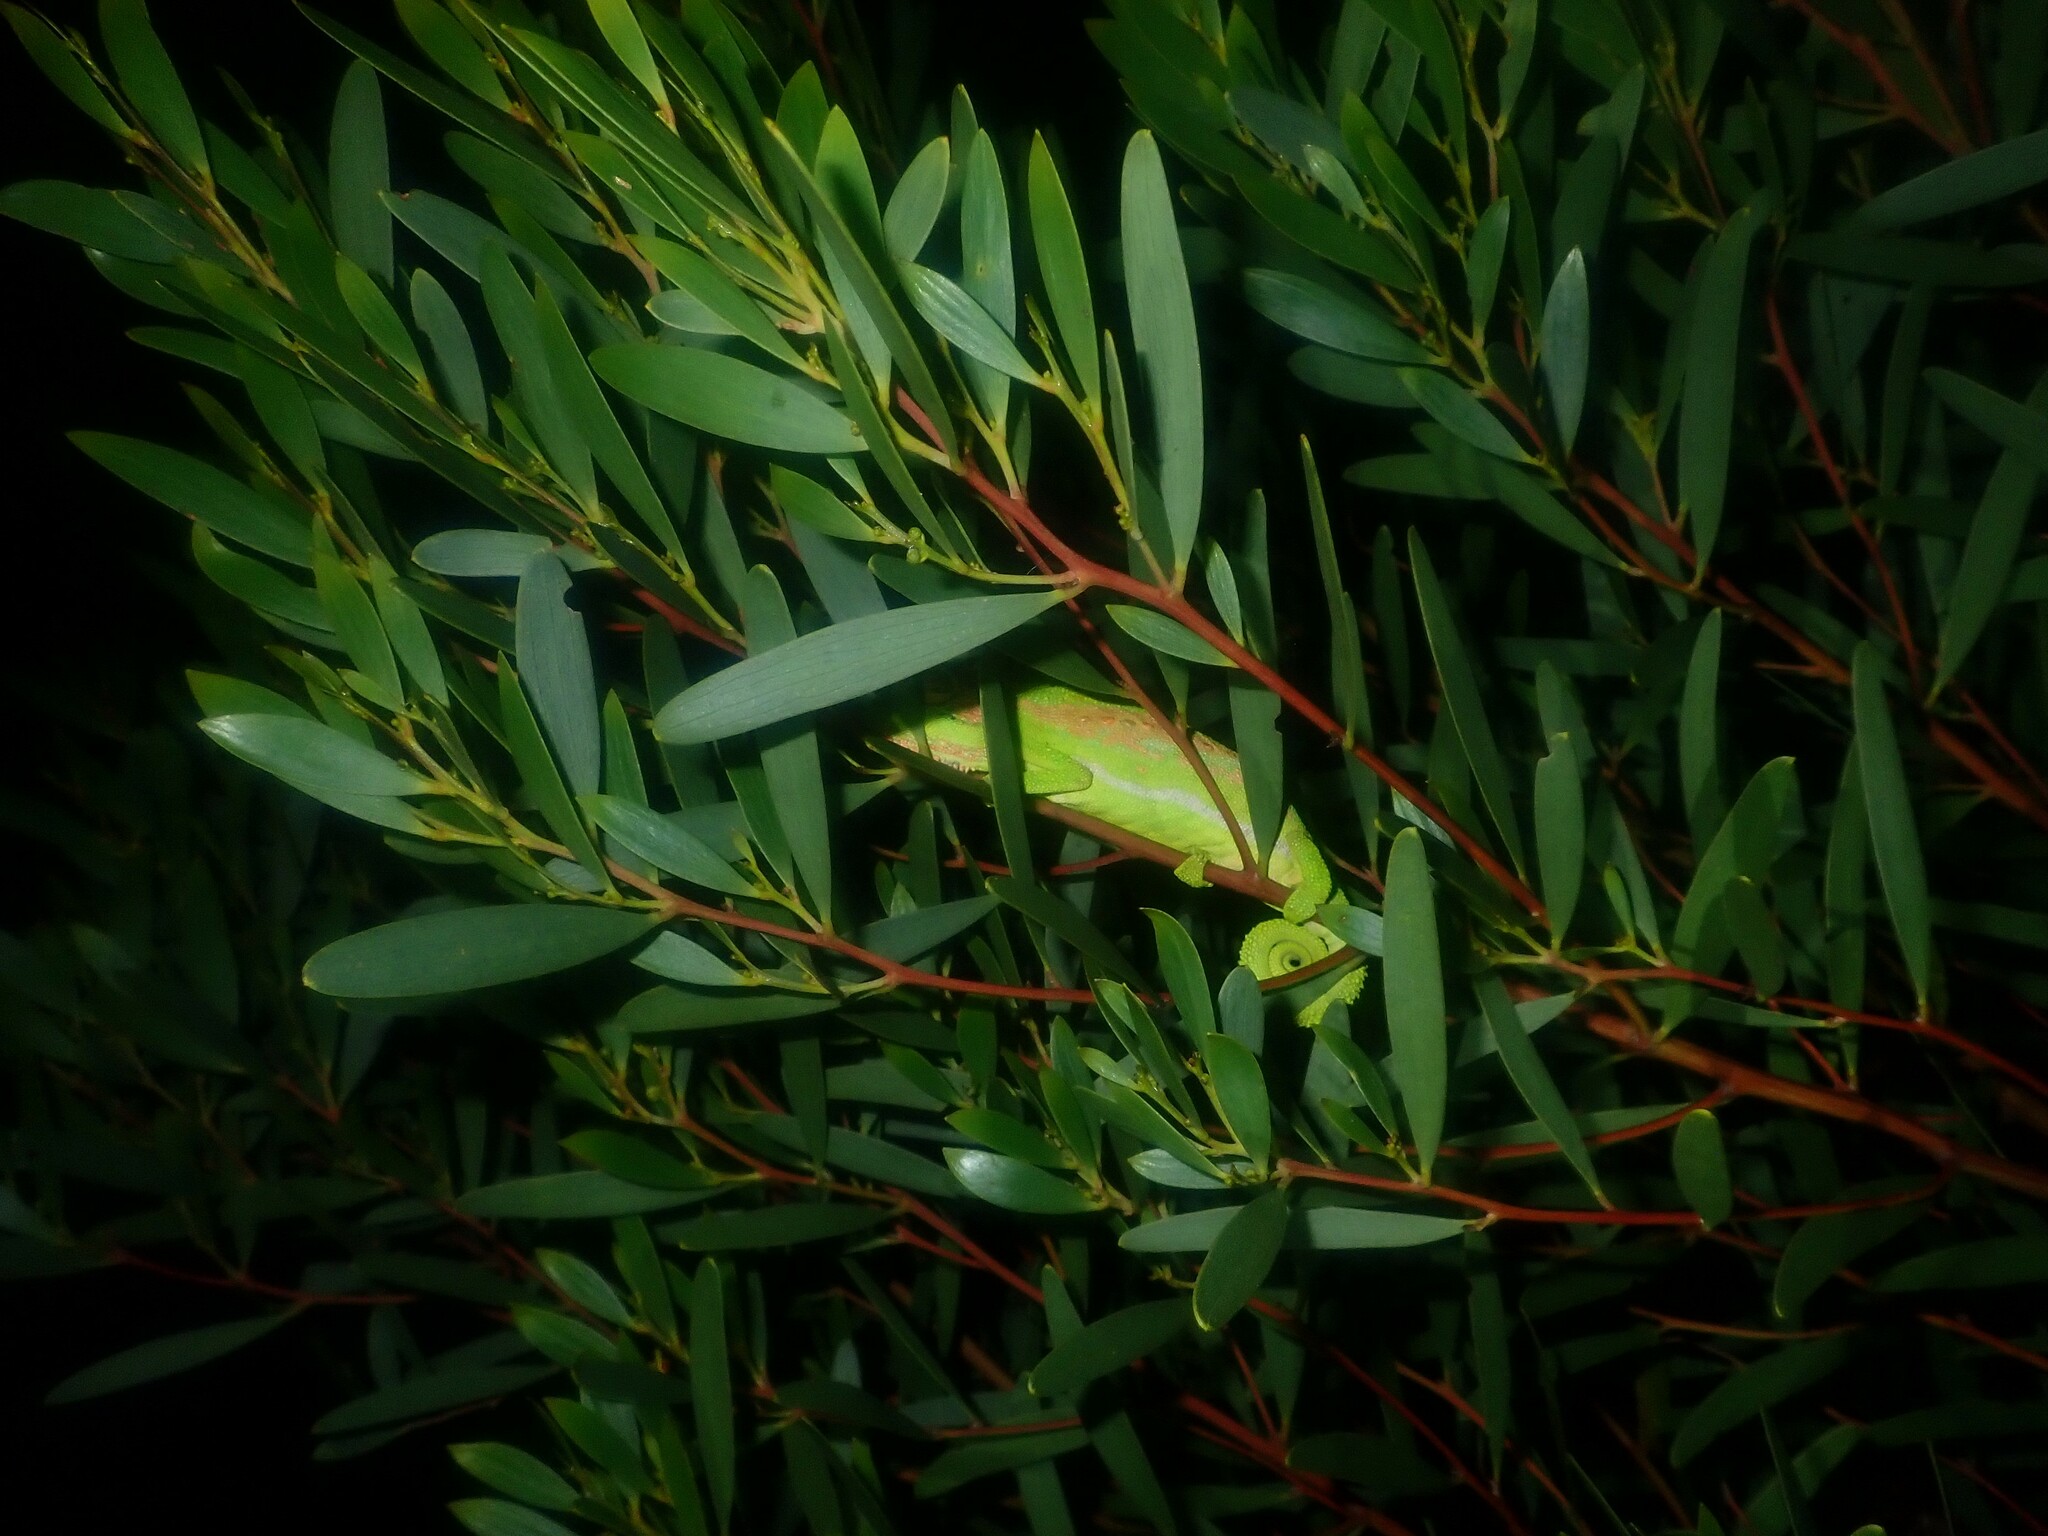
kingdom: Animalia
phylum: Chordata
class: Squamata
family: Chamaeleonidae
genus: Bradypodion
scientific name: Bradypodion pumilum
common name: Cape dwarf chameleon
